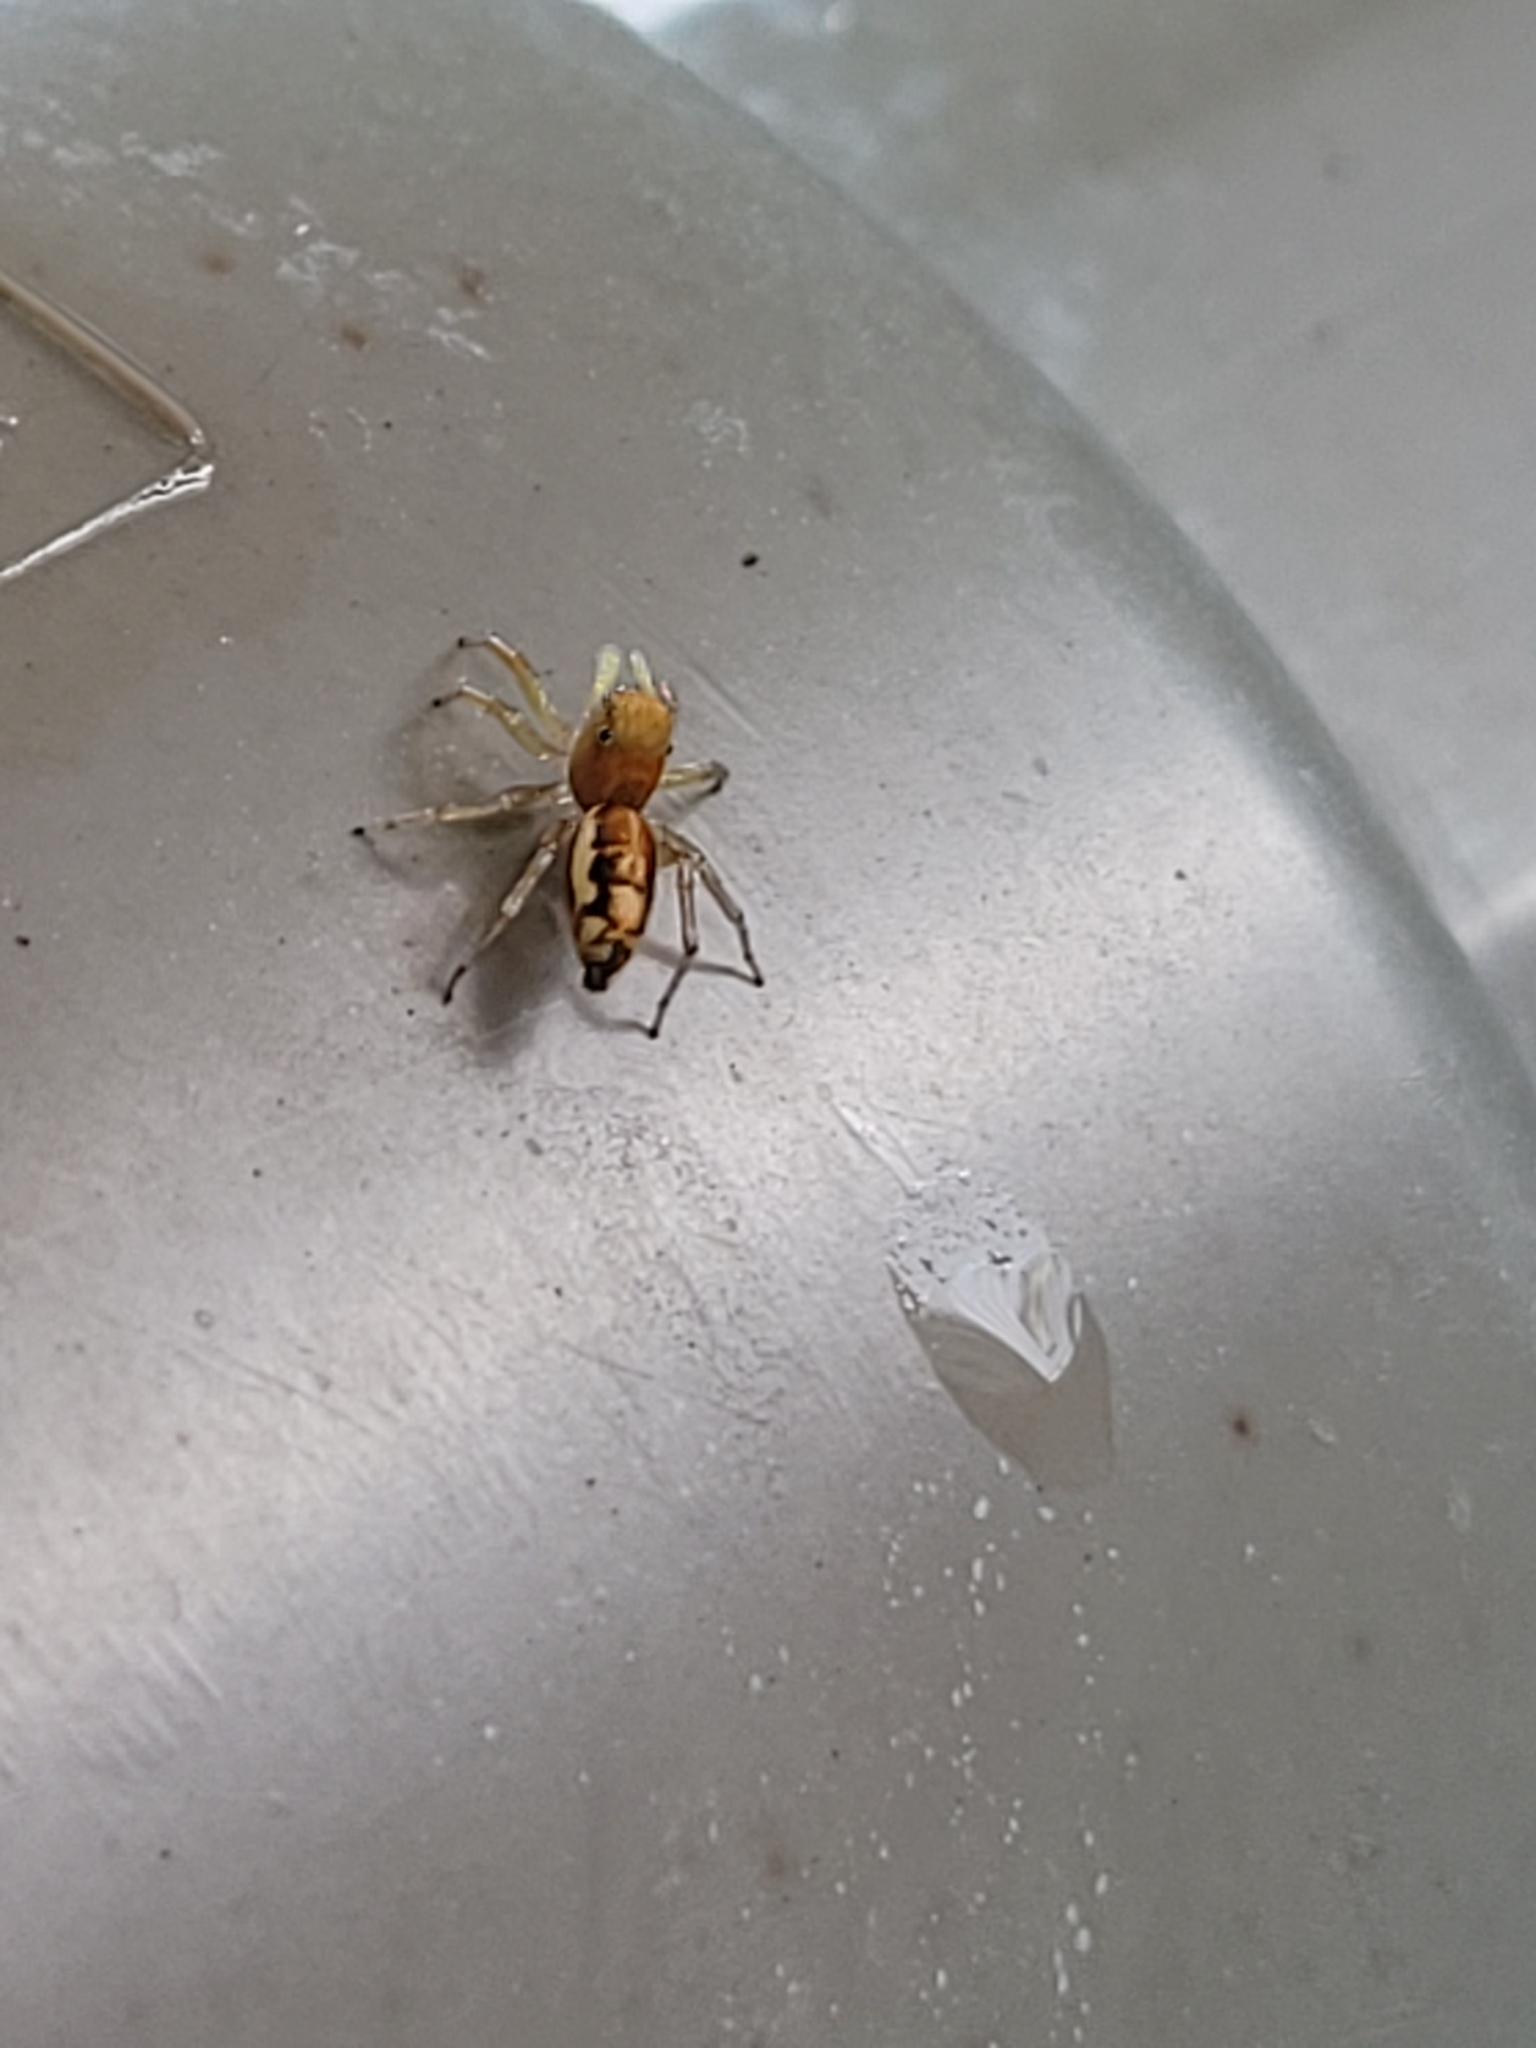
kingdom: Animalia
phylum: Arthropoda
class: Arachnida
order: Araneae
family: Salticidae
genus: Cosmophasis
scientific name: Cosmophasis lami
